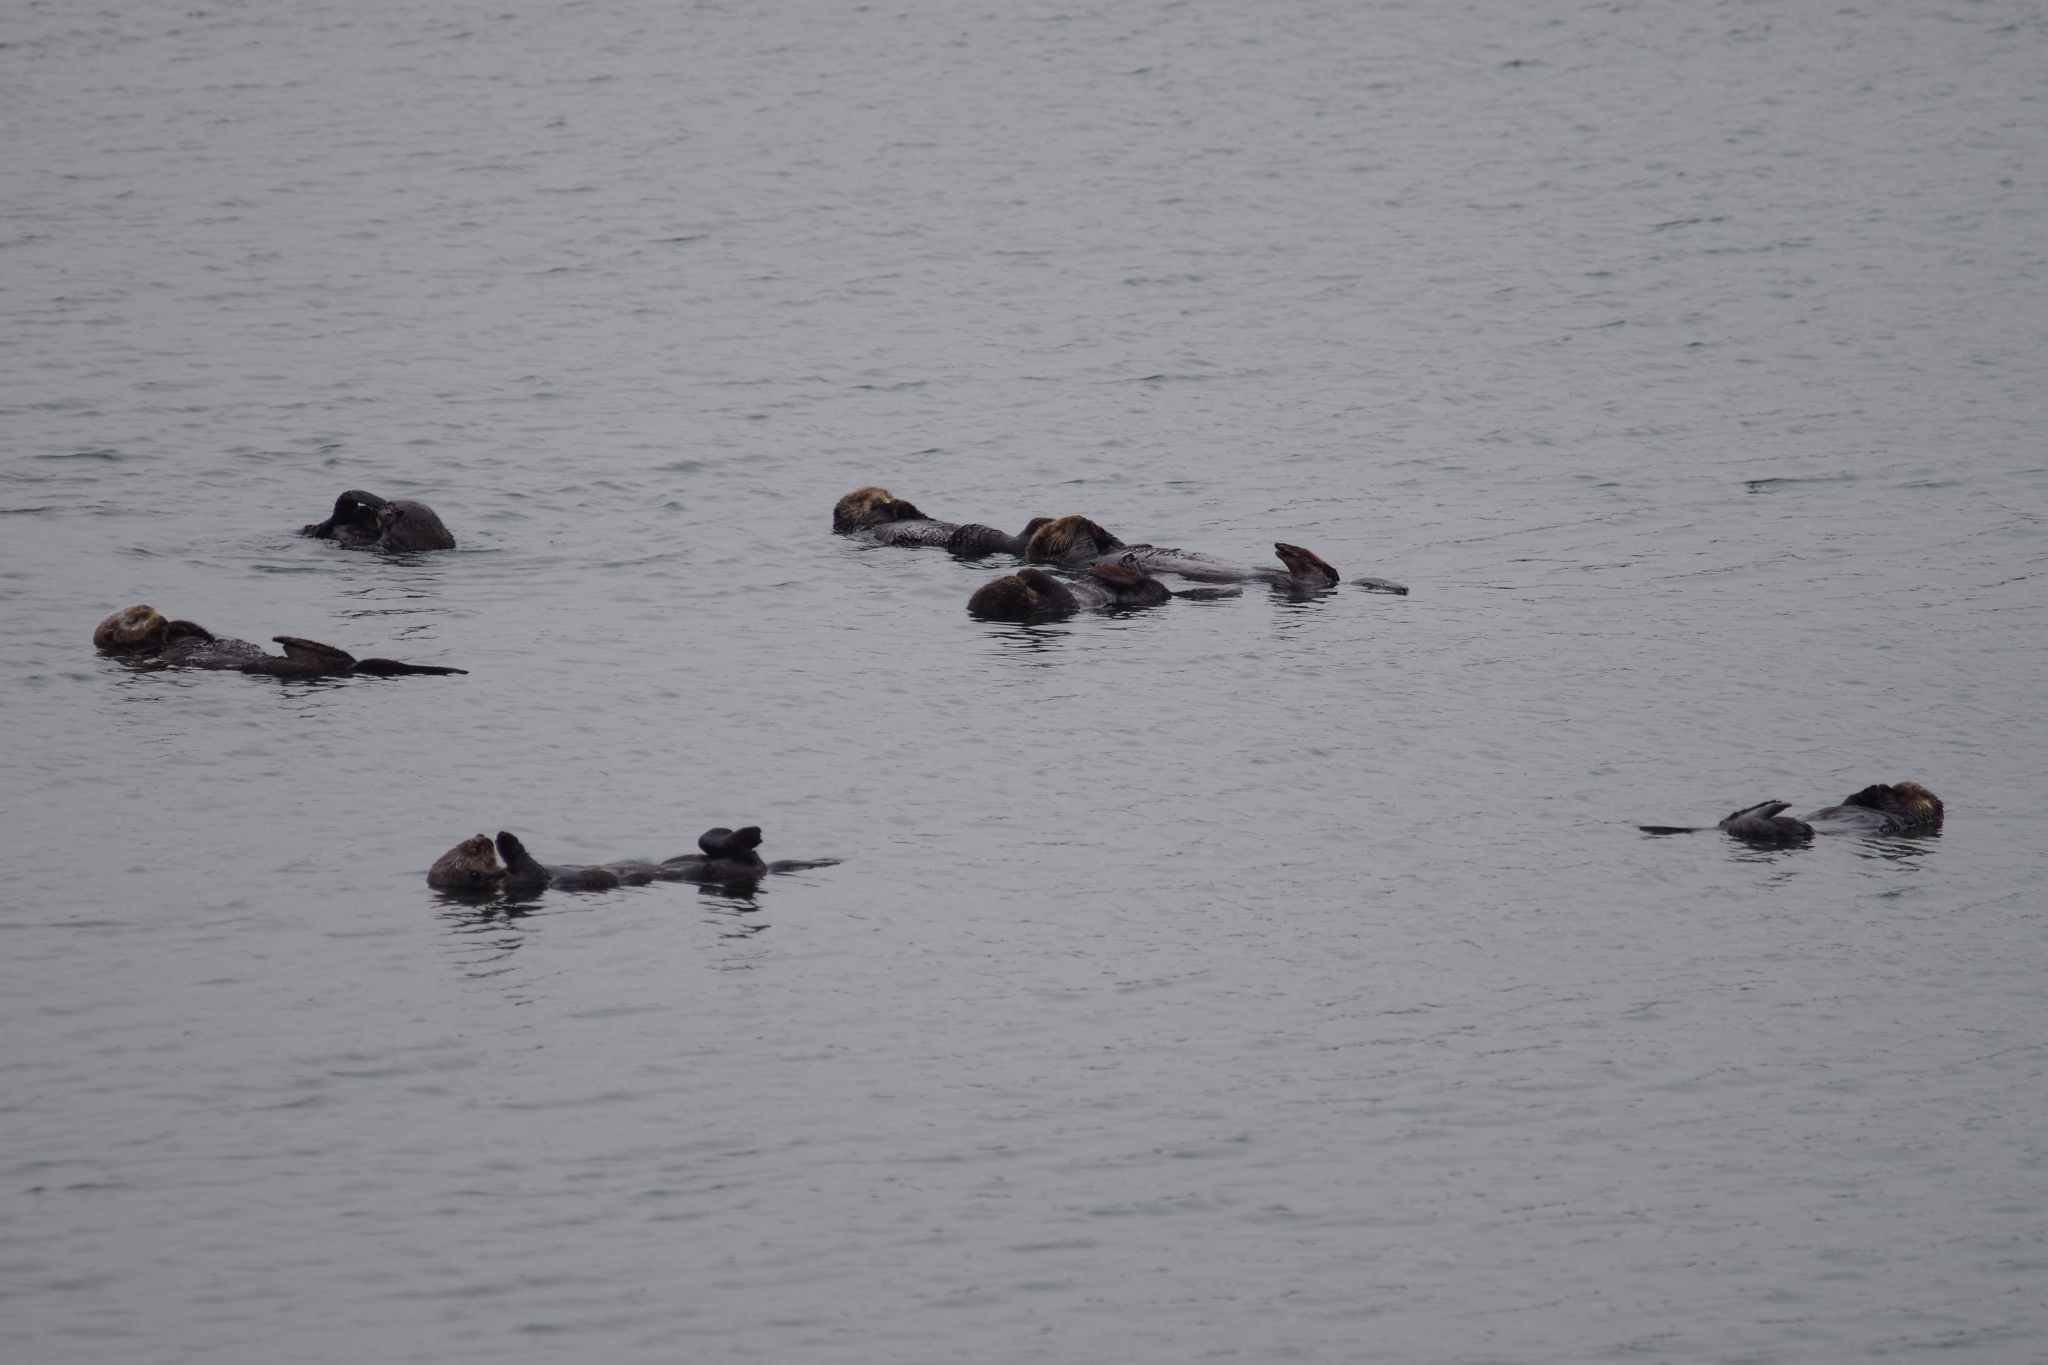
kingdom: Animalia
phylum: Chordata
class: Mammalia
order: Carnivora
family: Mustelidae
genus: Enhydra
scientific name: Enhydra lutris
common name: Sea otter
